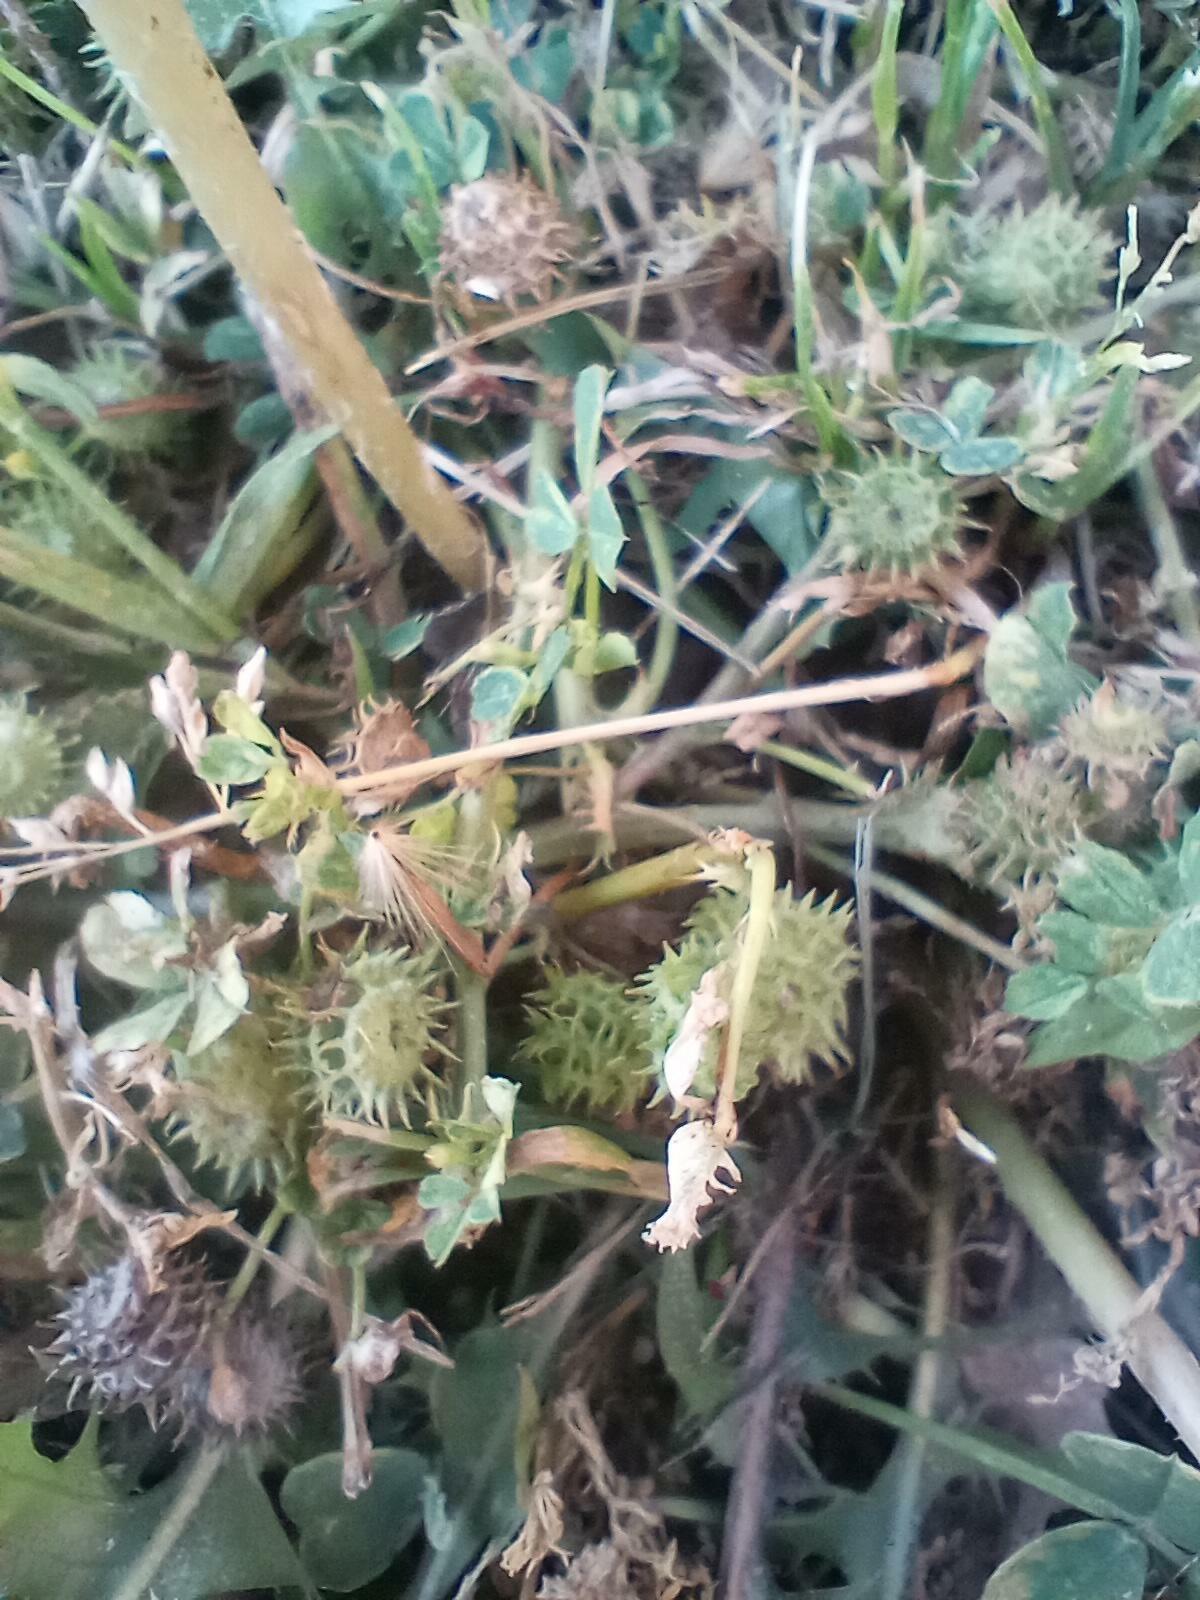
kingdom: Plantae
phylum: Tracheophyta
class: Magnoliopsida
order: Fabales
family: Fabaceae
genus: Medicago
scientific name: Medicago polymorpha
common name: Burclover
